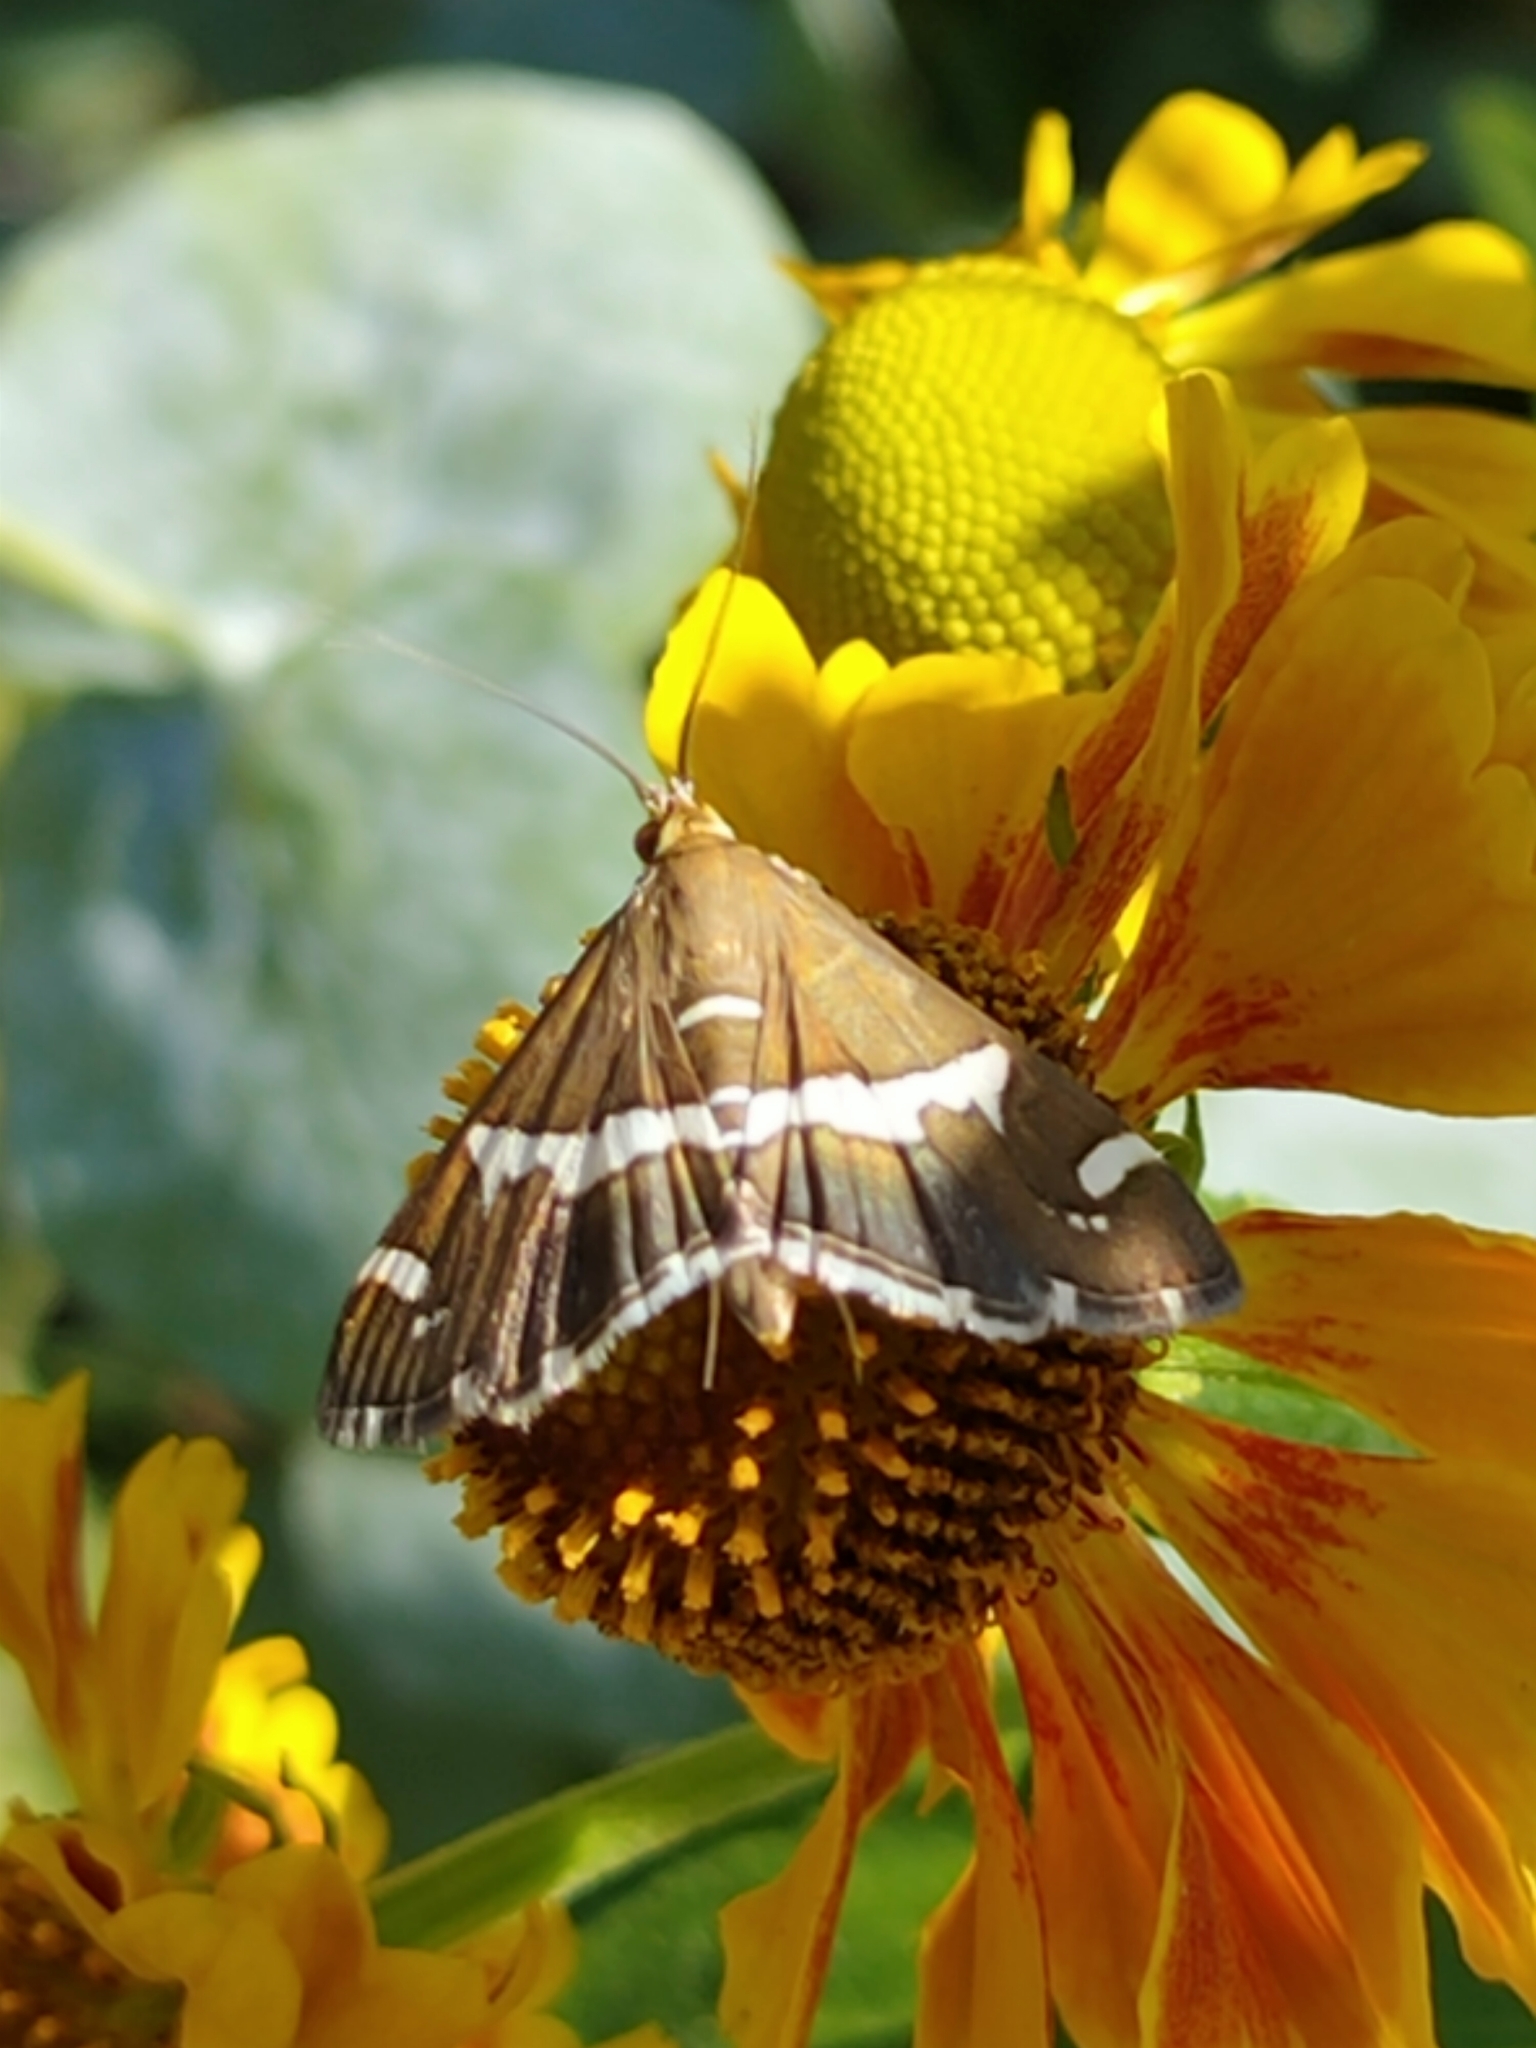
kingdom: Animalia
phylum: Arthropoda
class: Insecta
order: Lepidoptera
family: Crambidae
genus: Spoladea
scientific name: Spoladea recurvalis
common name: Beet webworm moth
